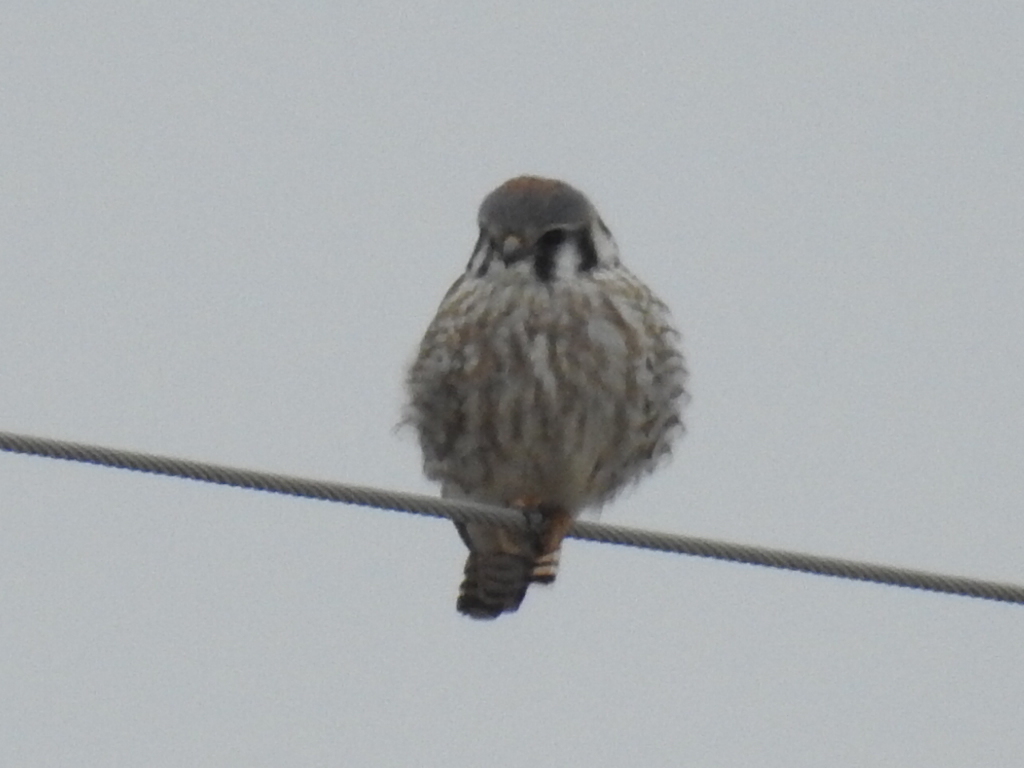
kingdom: Animalia
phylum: Chordata
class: Aves
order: Falconiformes
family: Falconidae
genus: Falco
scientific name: Falco sparverius
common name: American kestrel
